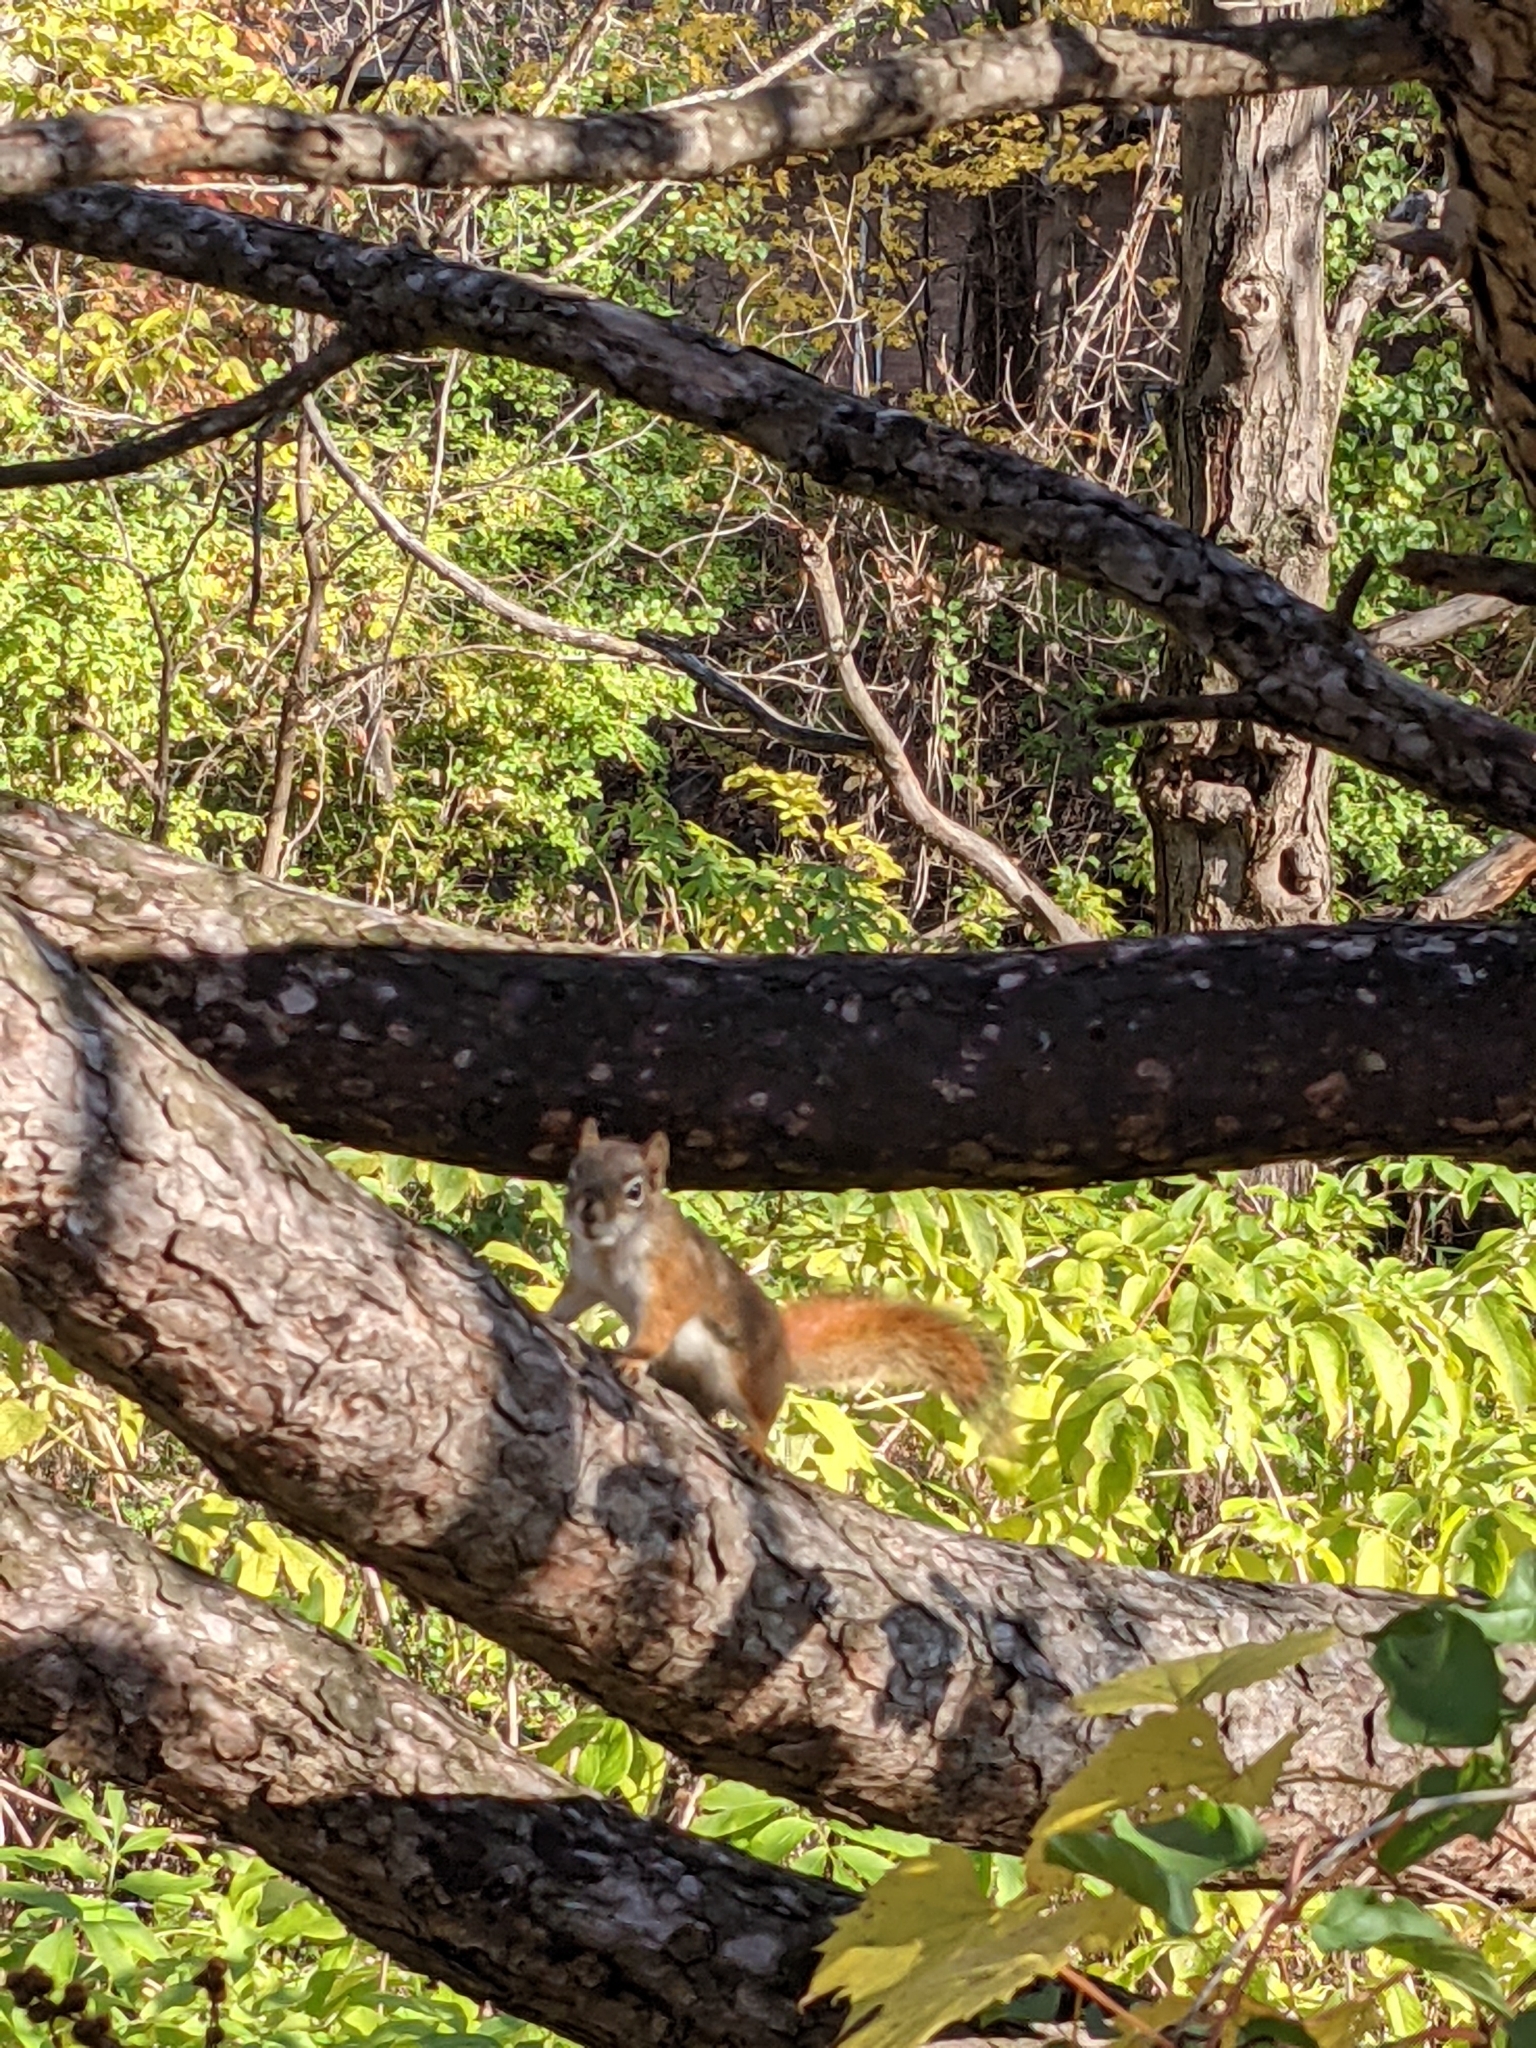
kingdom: Animalia
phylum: Chordata
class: Mammalia
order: Rodentia
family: Sciuridae
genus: Tamiasciurus
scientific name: Tamiasciurus hudsonicus
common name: Red squirrel
